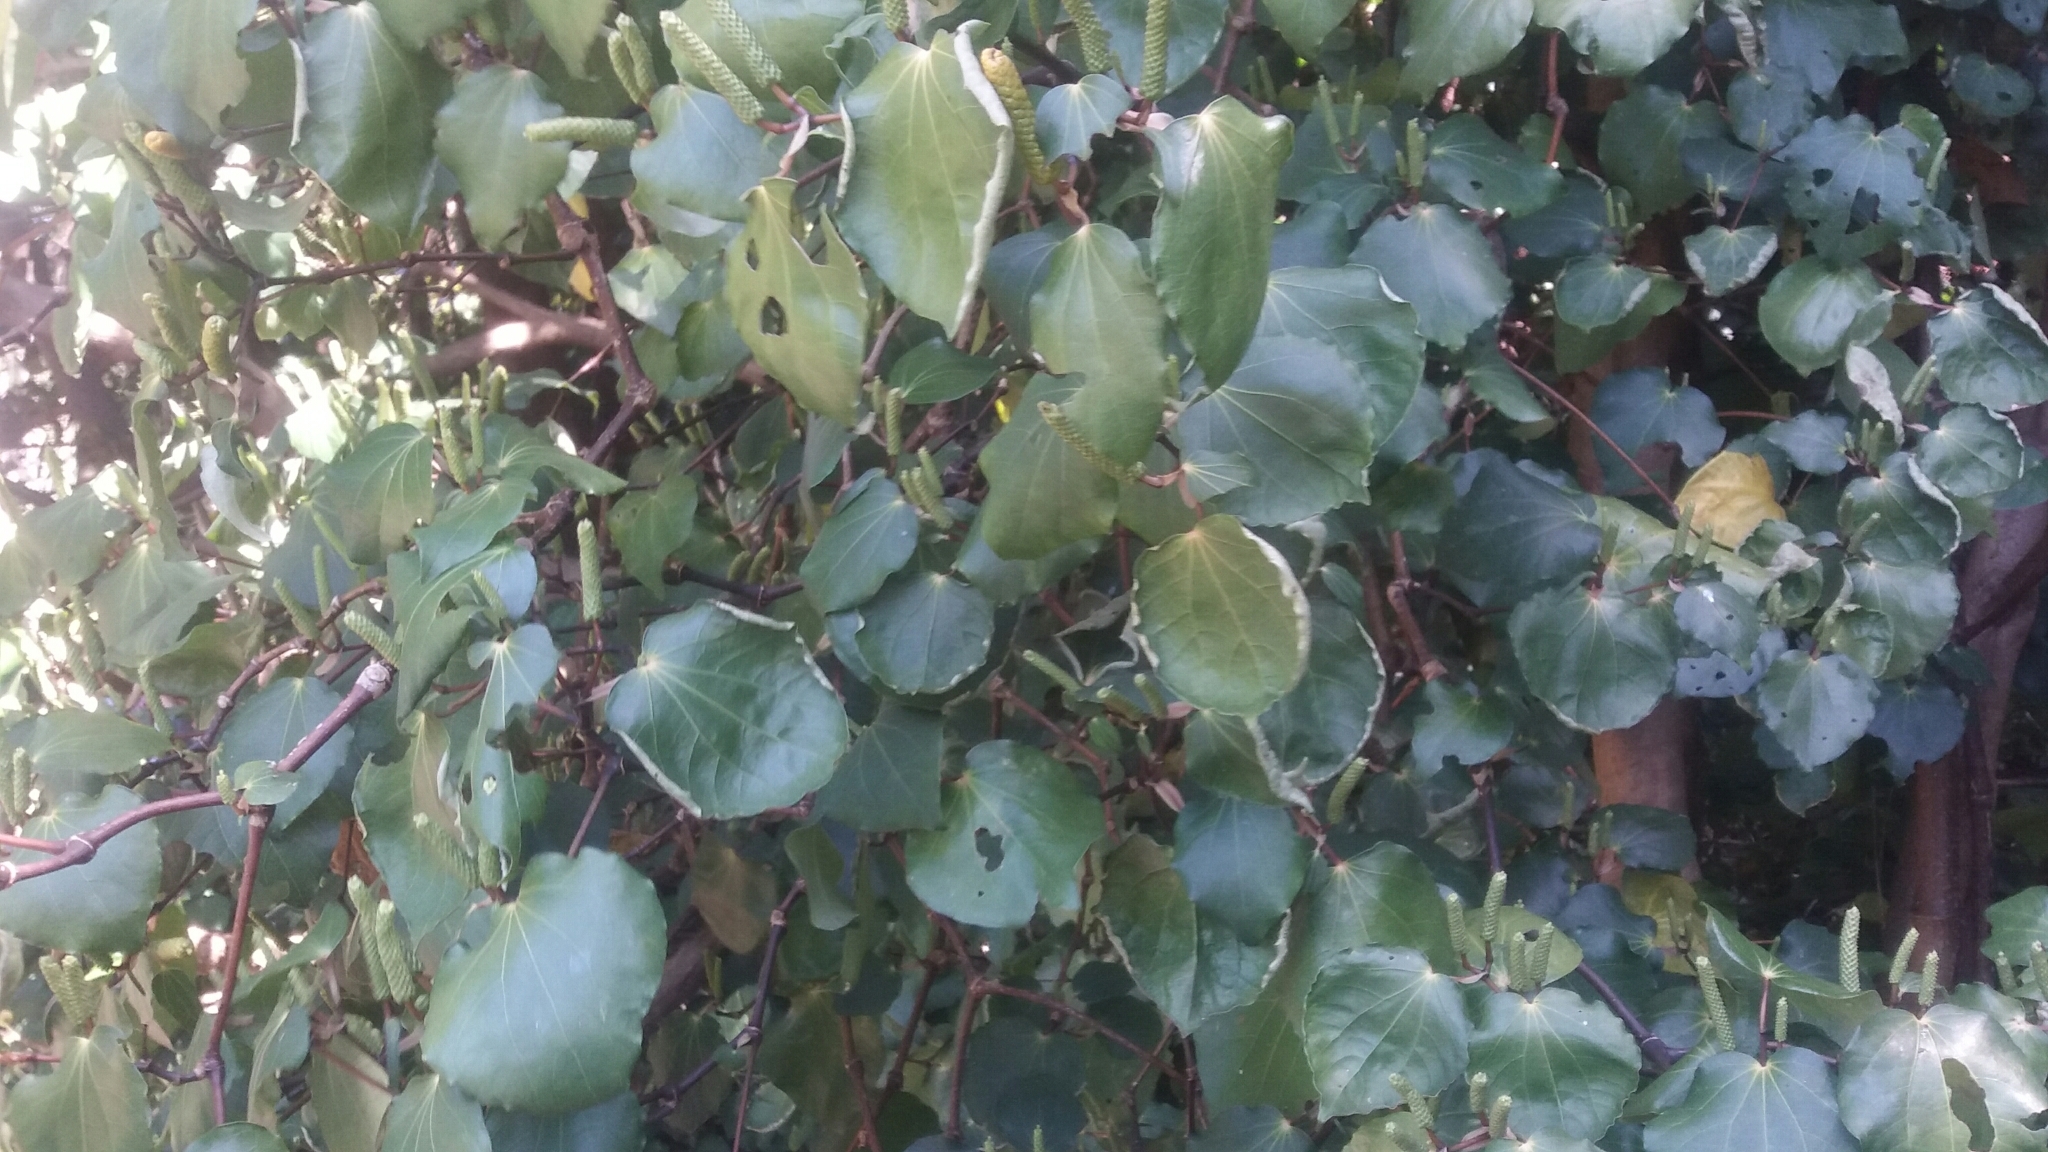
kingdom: Plantae
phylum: Tracheophyta
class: Magnoliopsida
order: Piperales
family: Piperaceae
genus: Macropiper
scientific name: Macropiper excelsum
